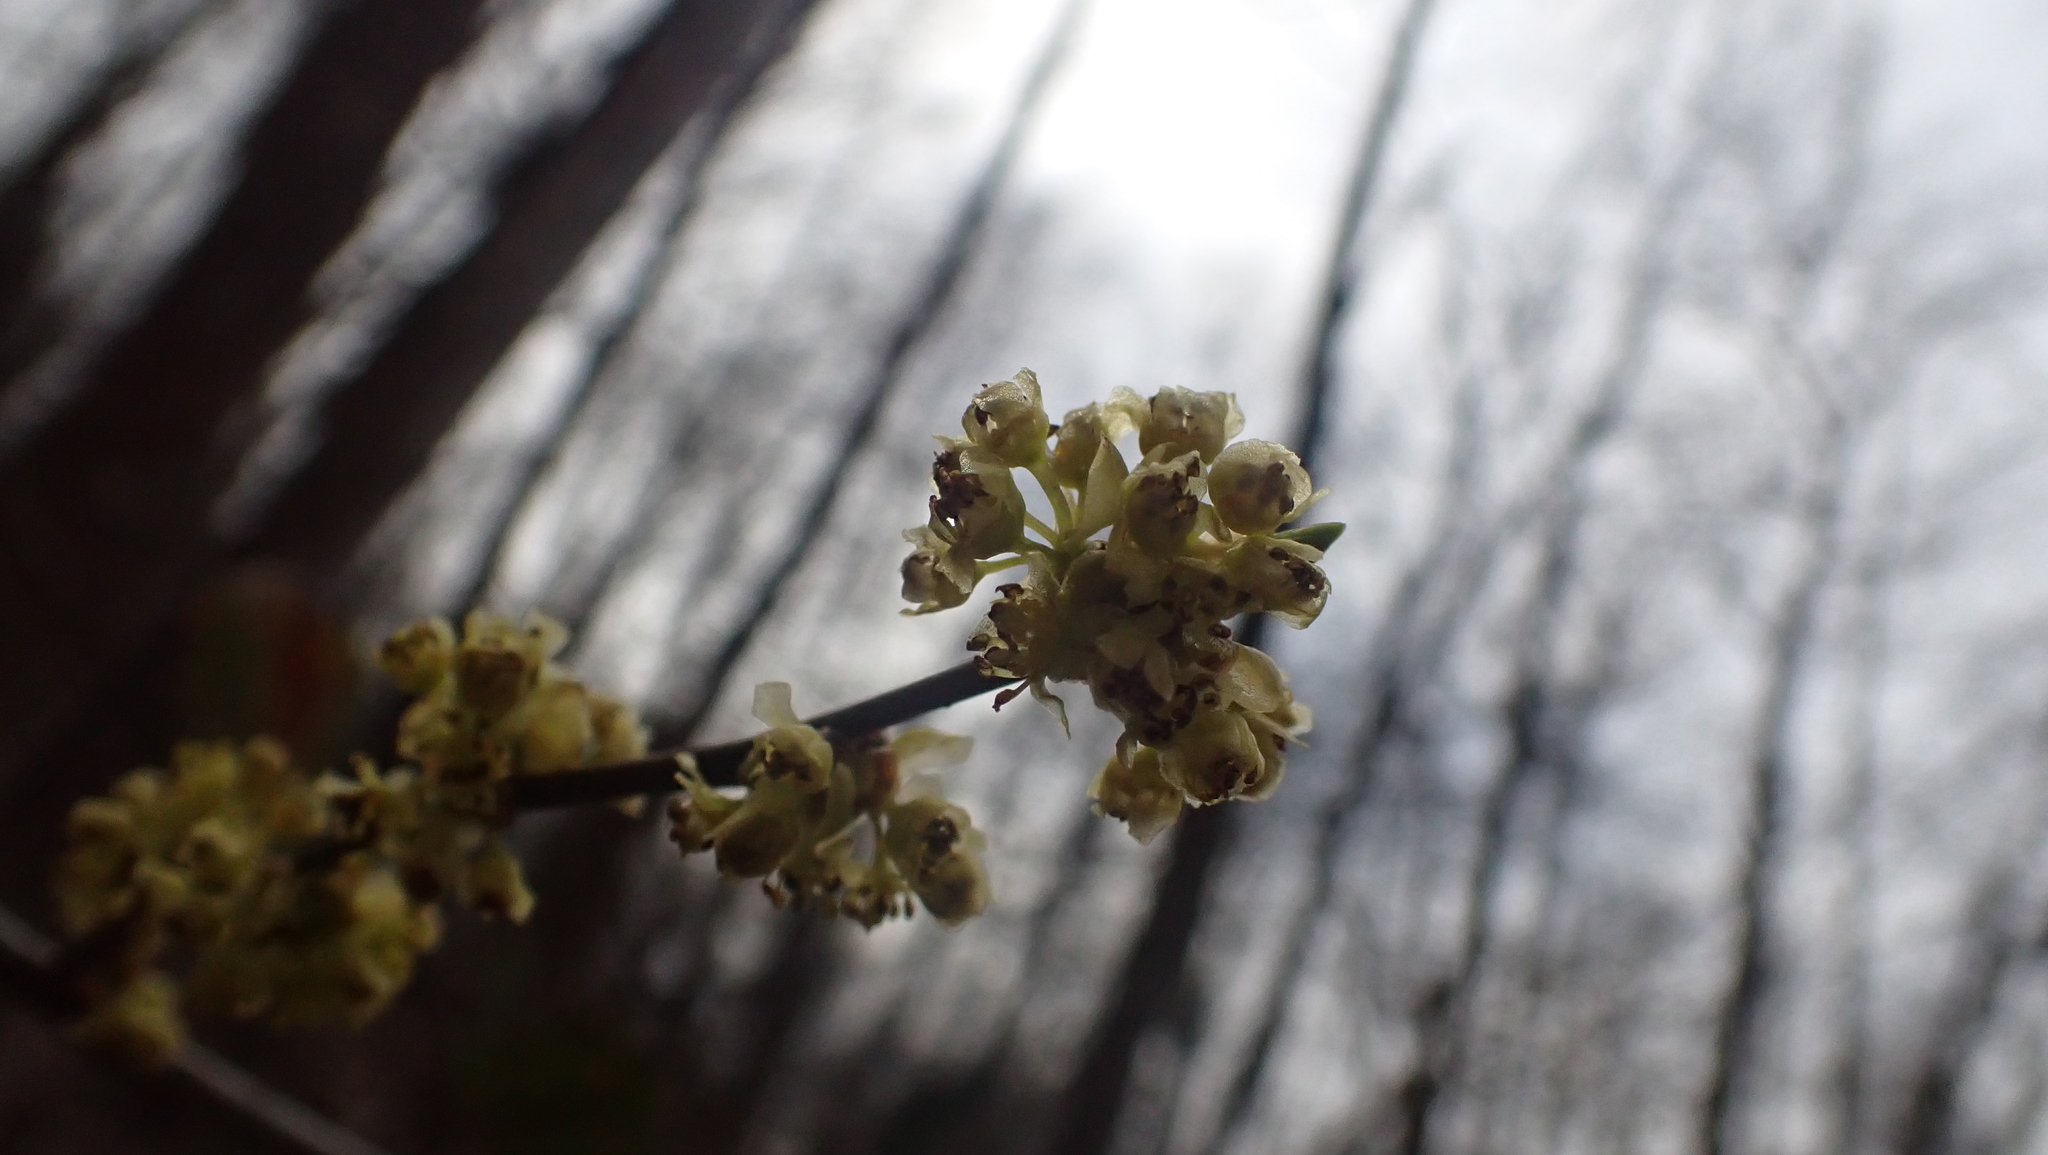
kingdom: Plantae
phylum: Tracheophyta
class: Magnoliopsida
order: Laurales
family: Lauraceae
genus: Lindera
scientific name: Lindera benzoin
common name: Spicebush
